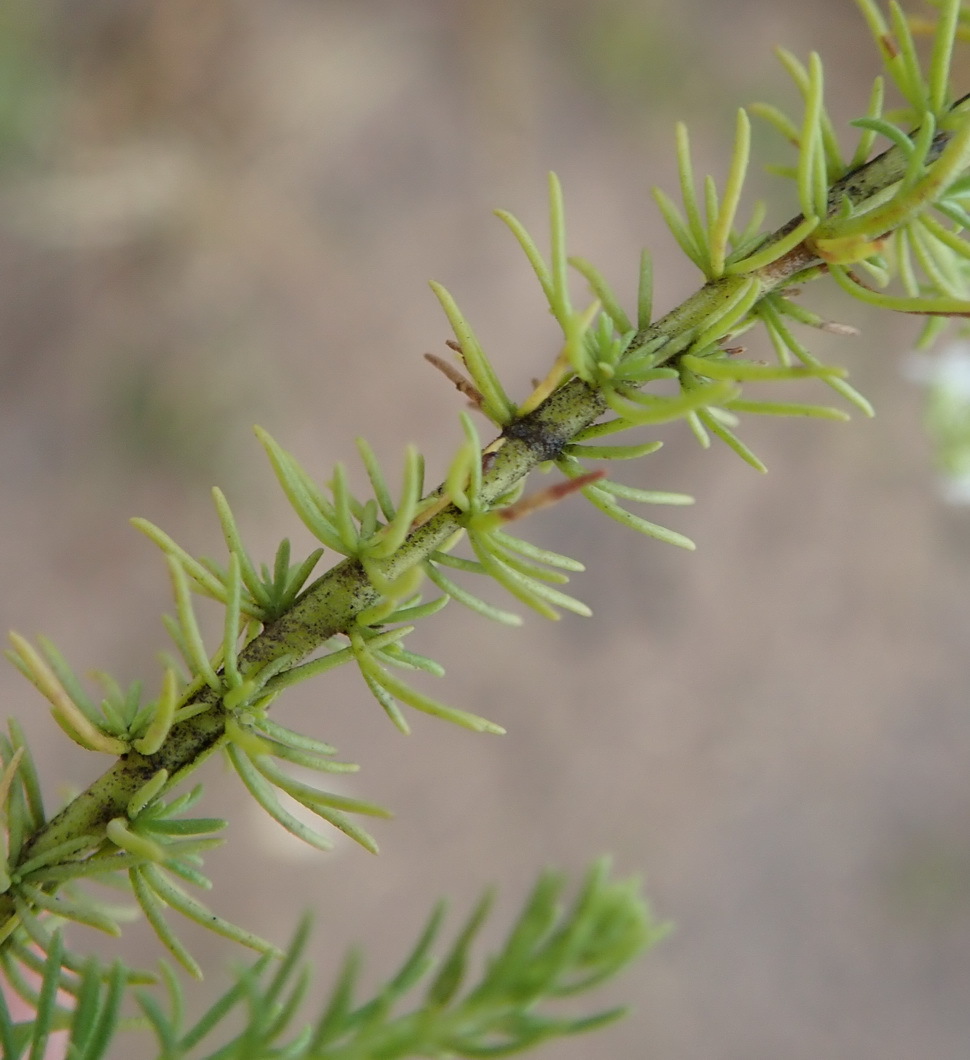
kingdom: Plantae
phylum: Tracheophyta
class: Magnoliopsida
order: Lamiales
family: Scrophulariaceae
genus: Selago
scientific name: Selago corymbosa
